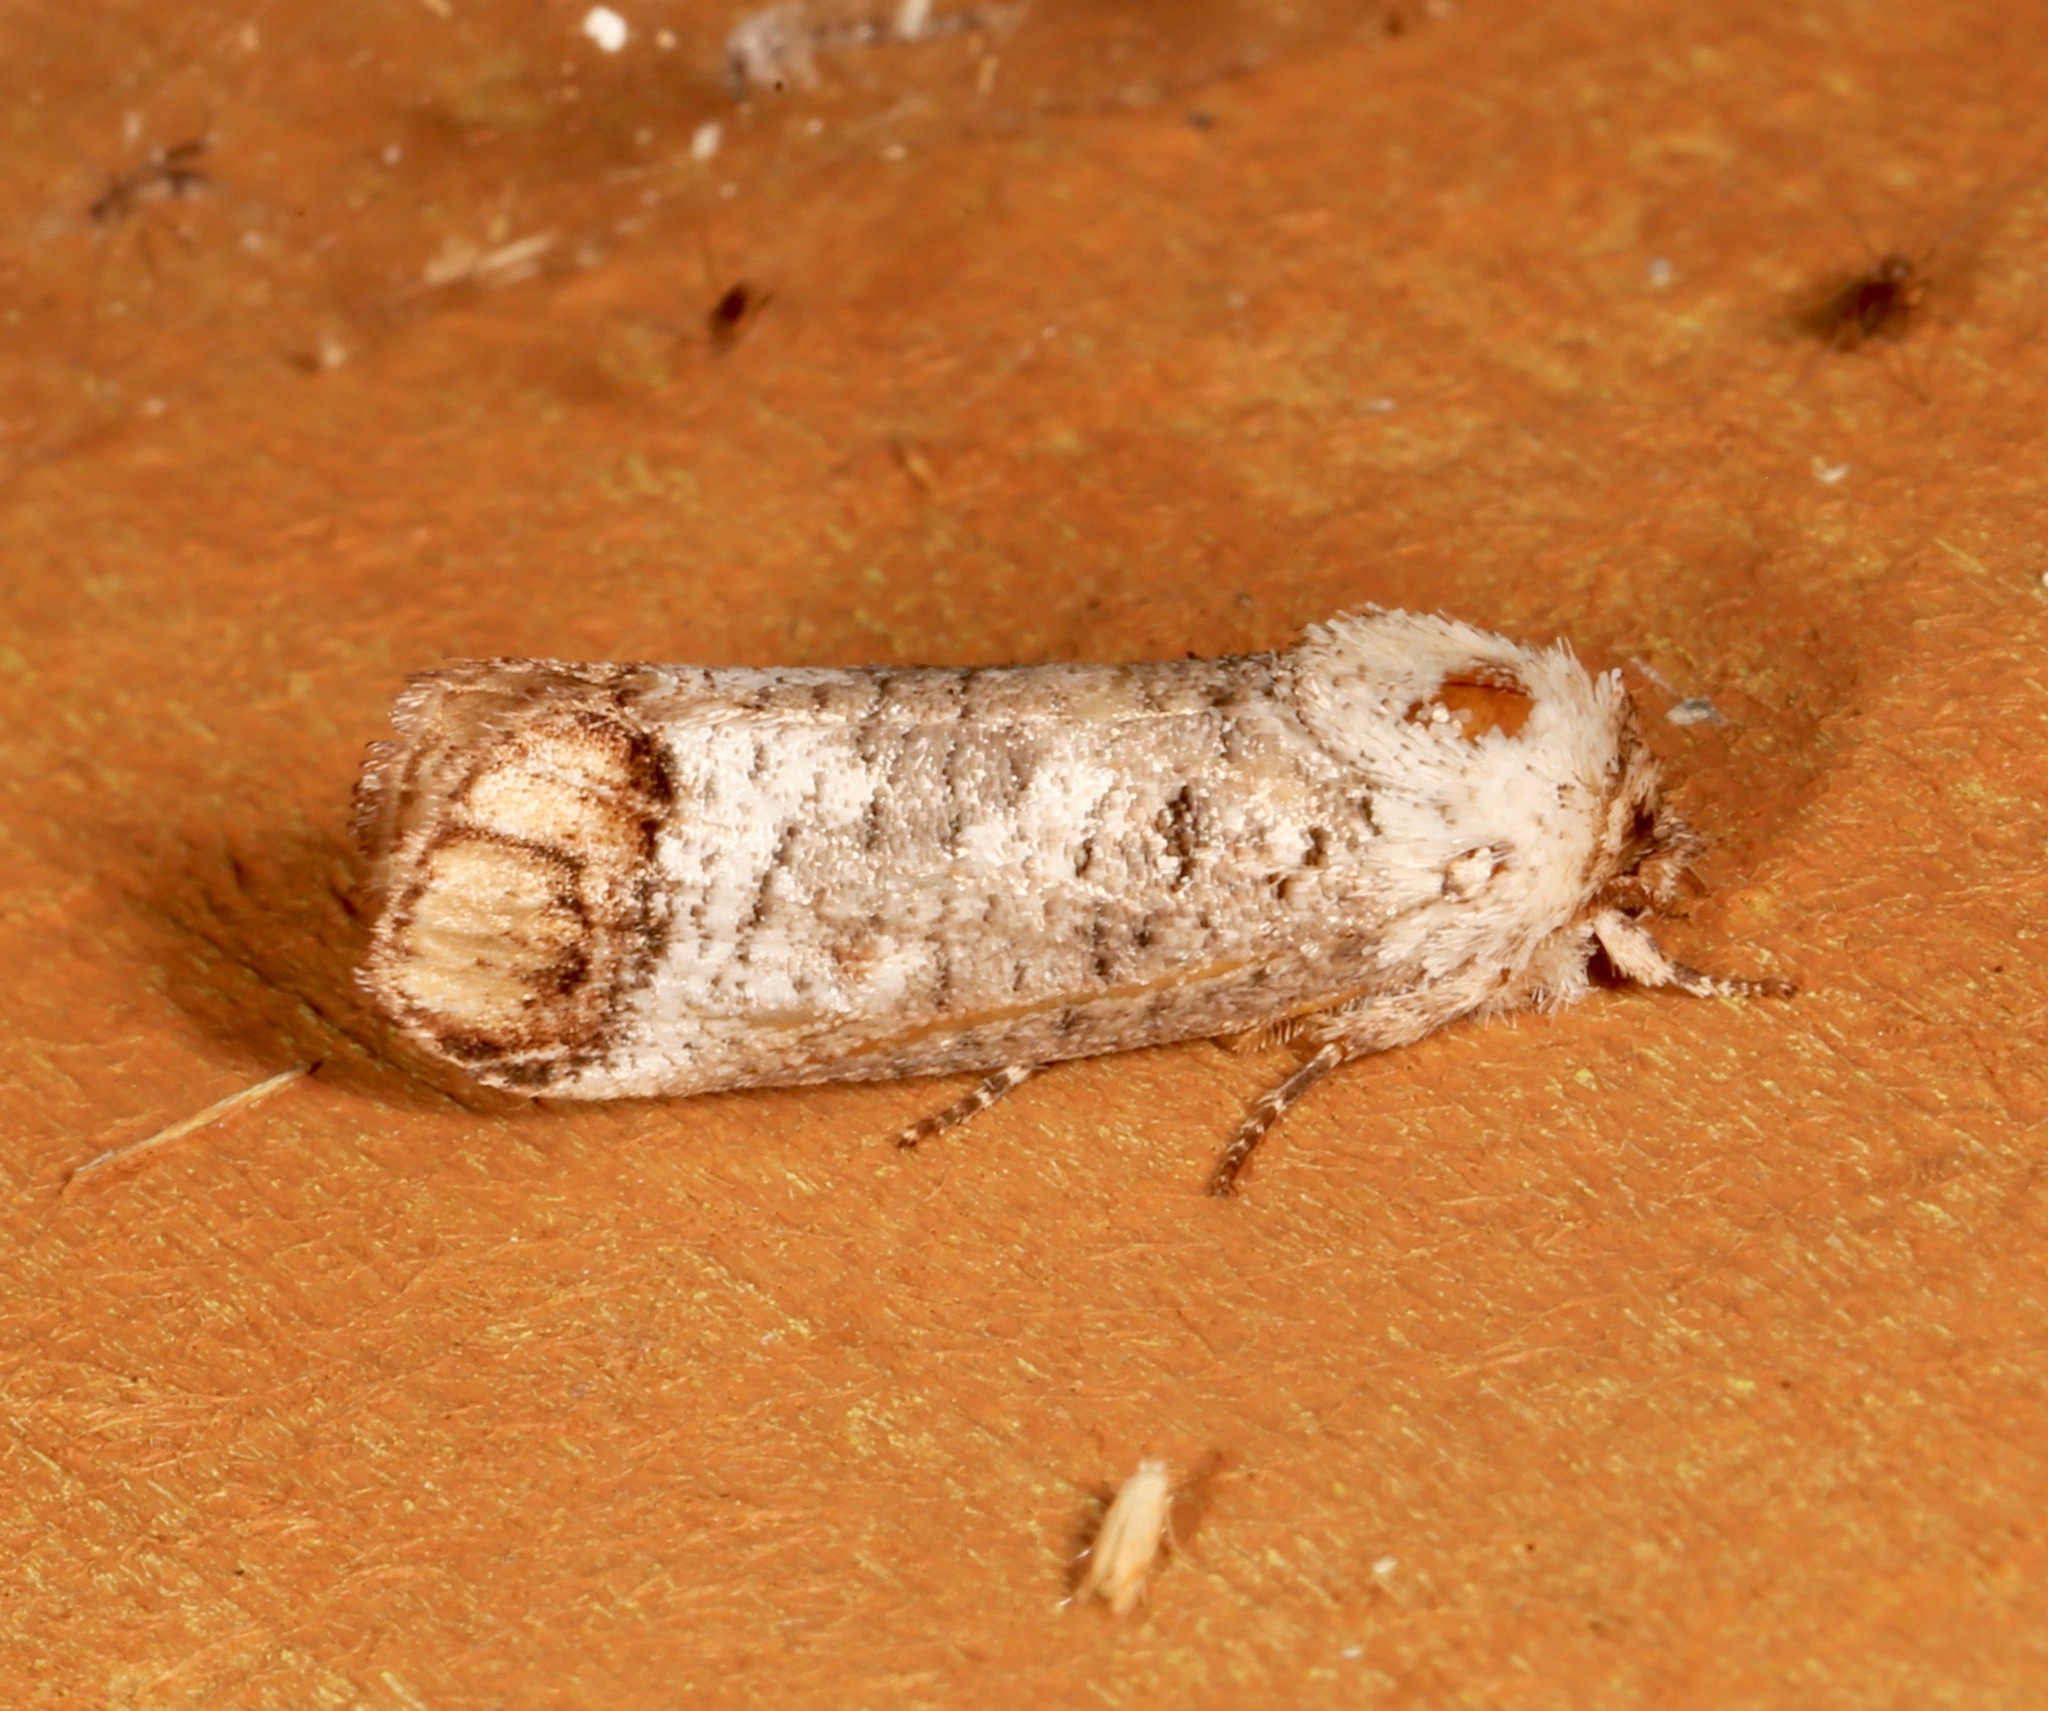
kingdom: Animalia
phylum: Arthropoda
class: Insecta
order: Lepidoptera
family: Cossidae
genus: Cossula
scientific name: Cossula magnifica
